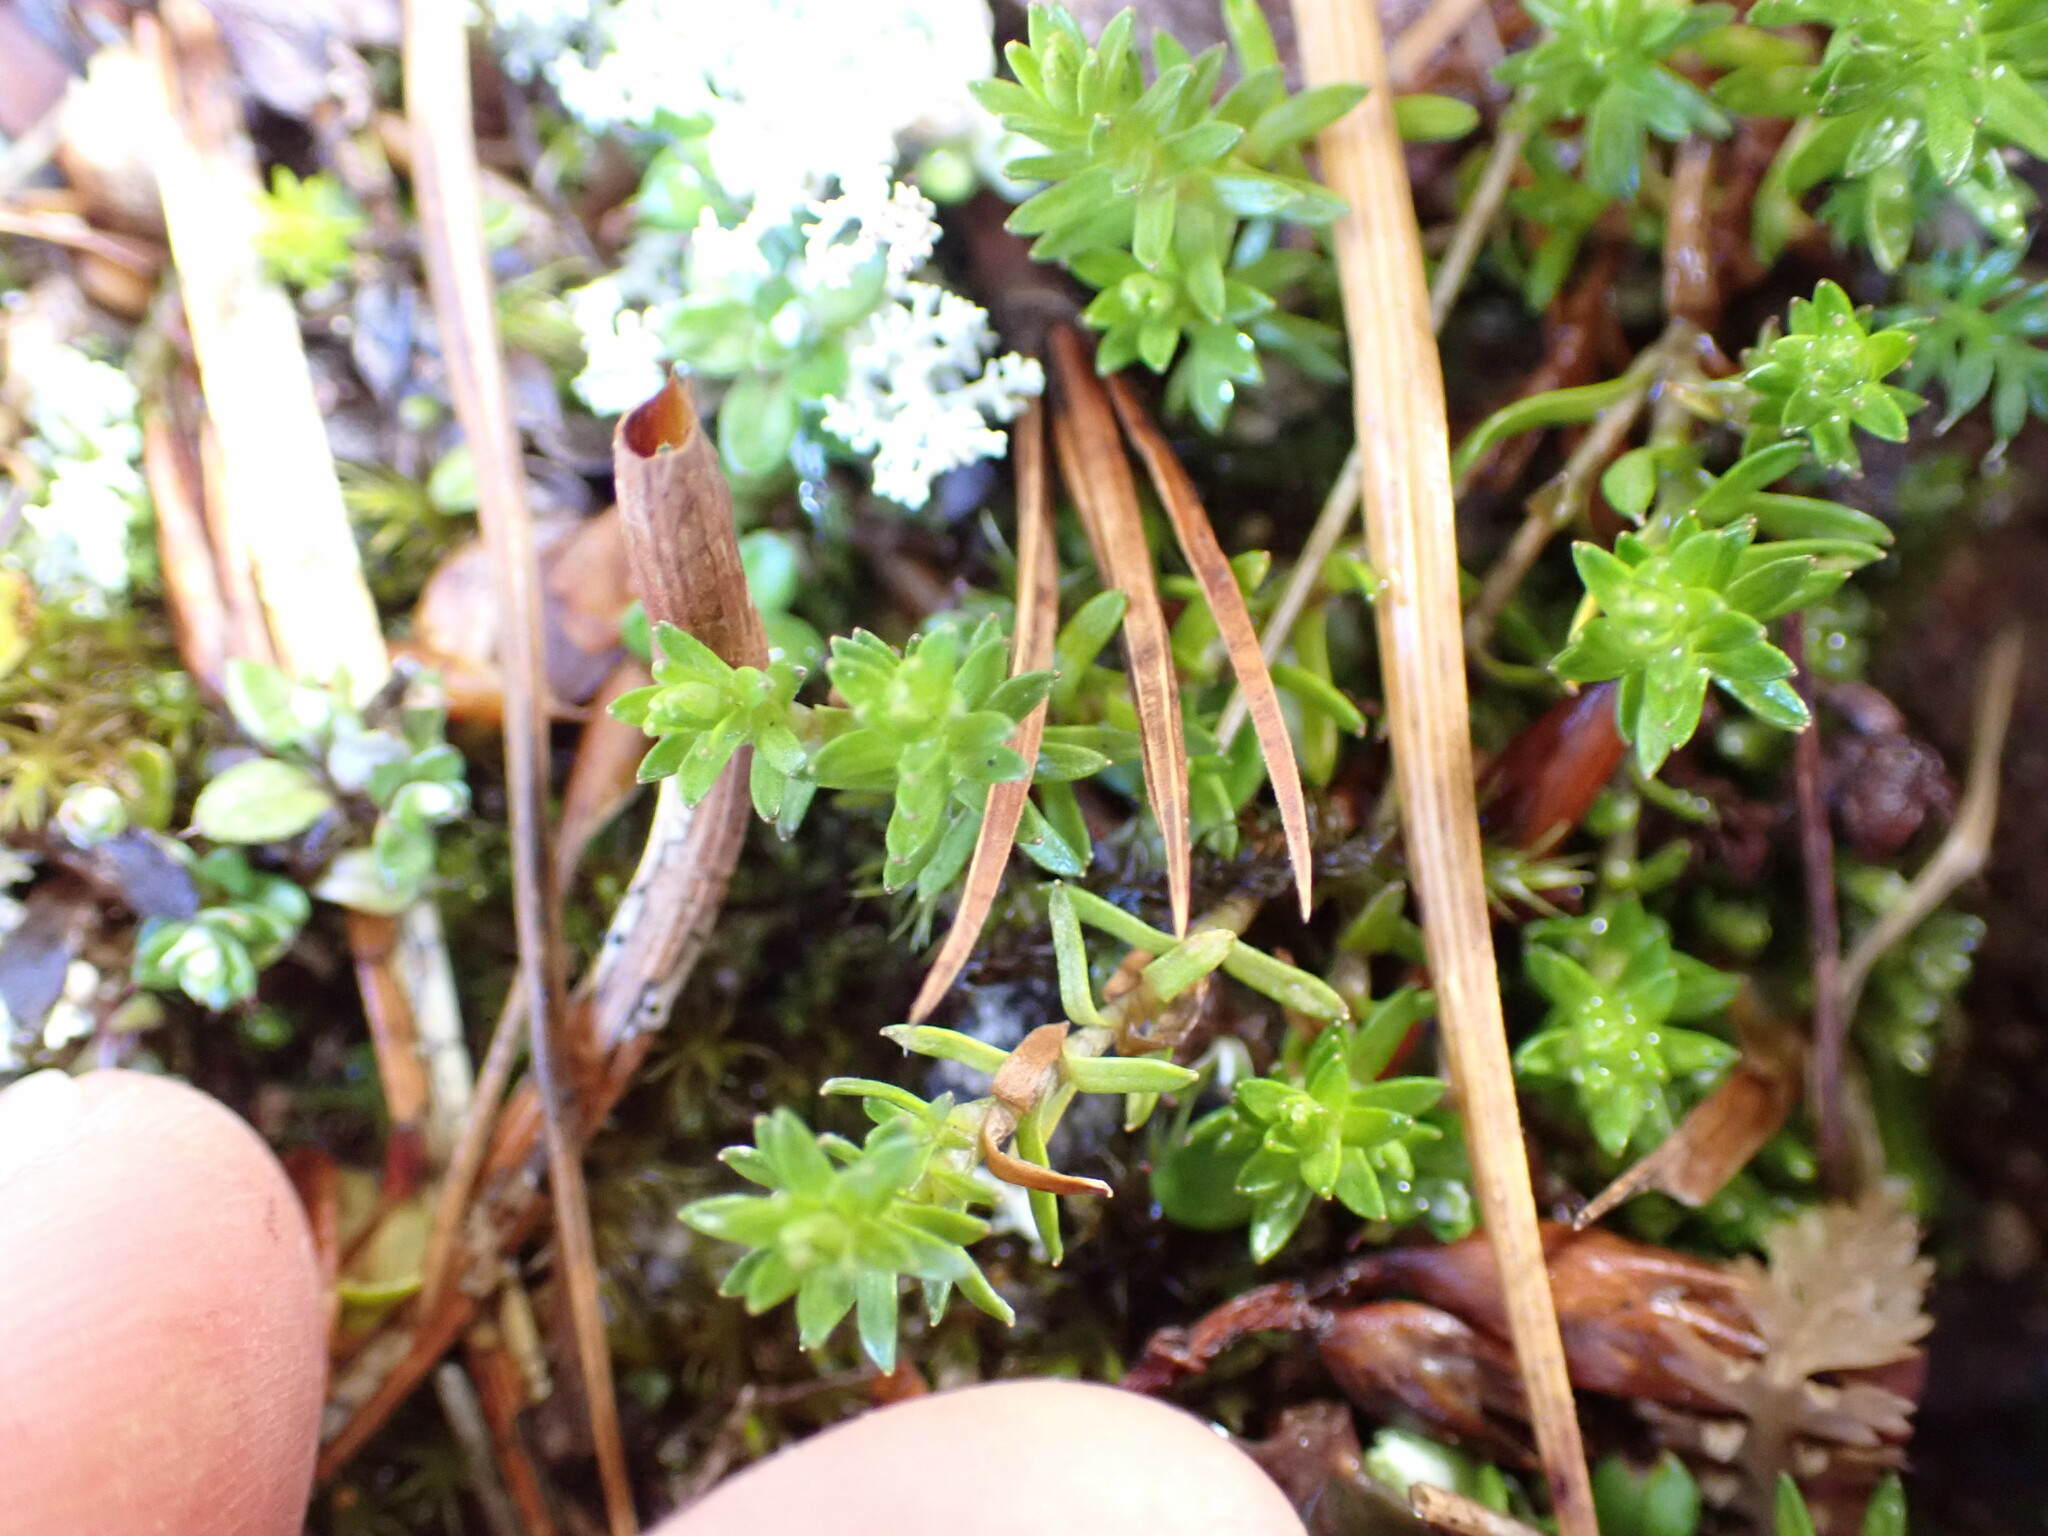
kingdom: Plantae
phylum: Tracheophyta
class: Magnoliopsida
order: Asterales
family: Asteraceae
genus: Raoulia
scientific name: Raoulia glabra
